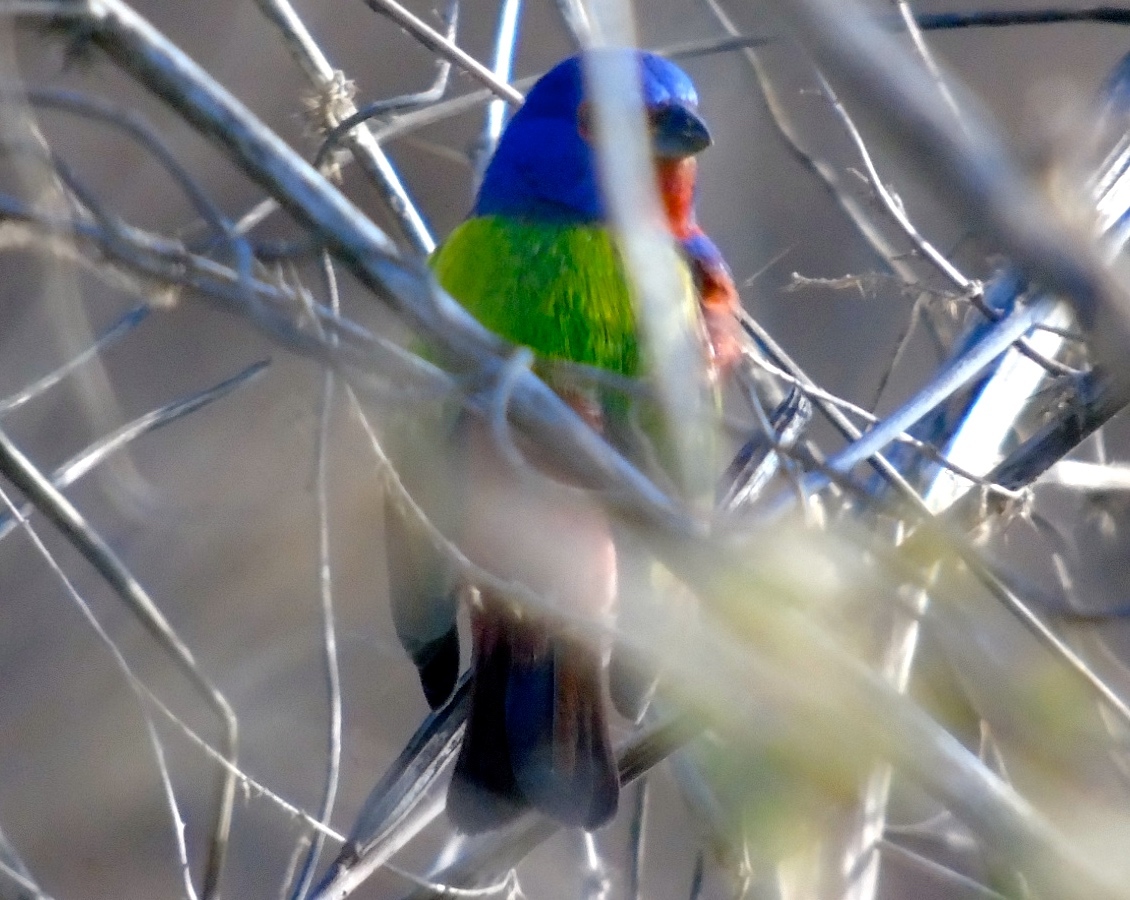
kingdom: Animalia
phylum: Chordata
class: Aves
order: Passeriformes
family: Cardinalidae
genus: Passerina
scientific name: Passerina ciris
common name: Painted bunting
